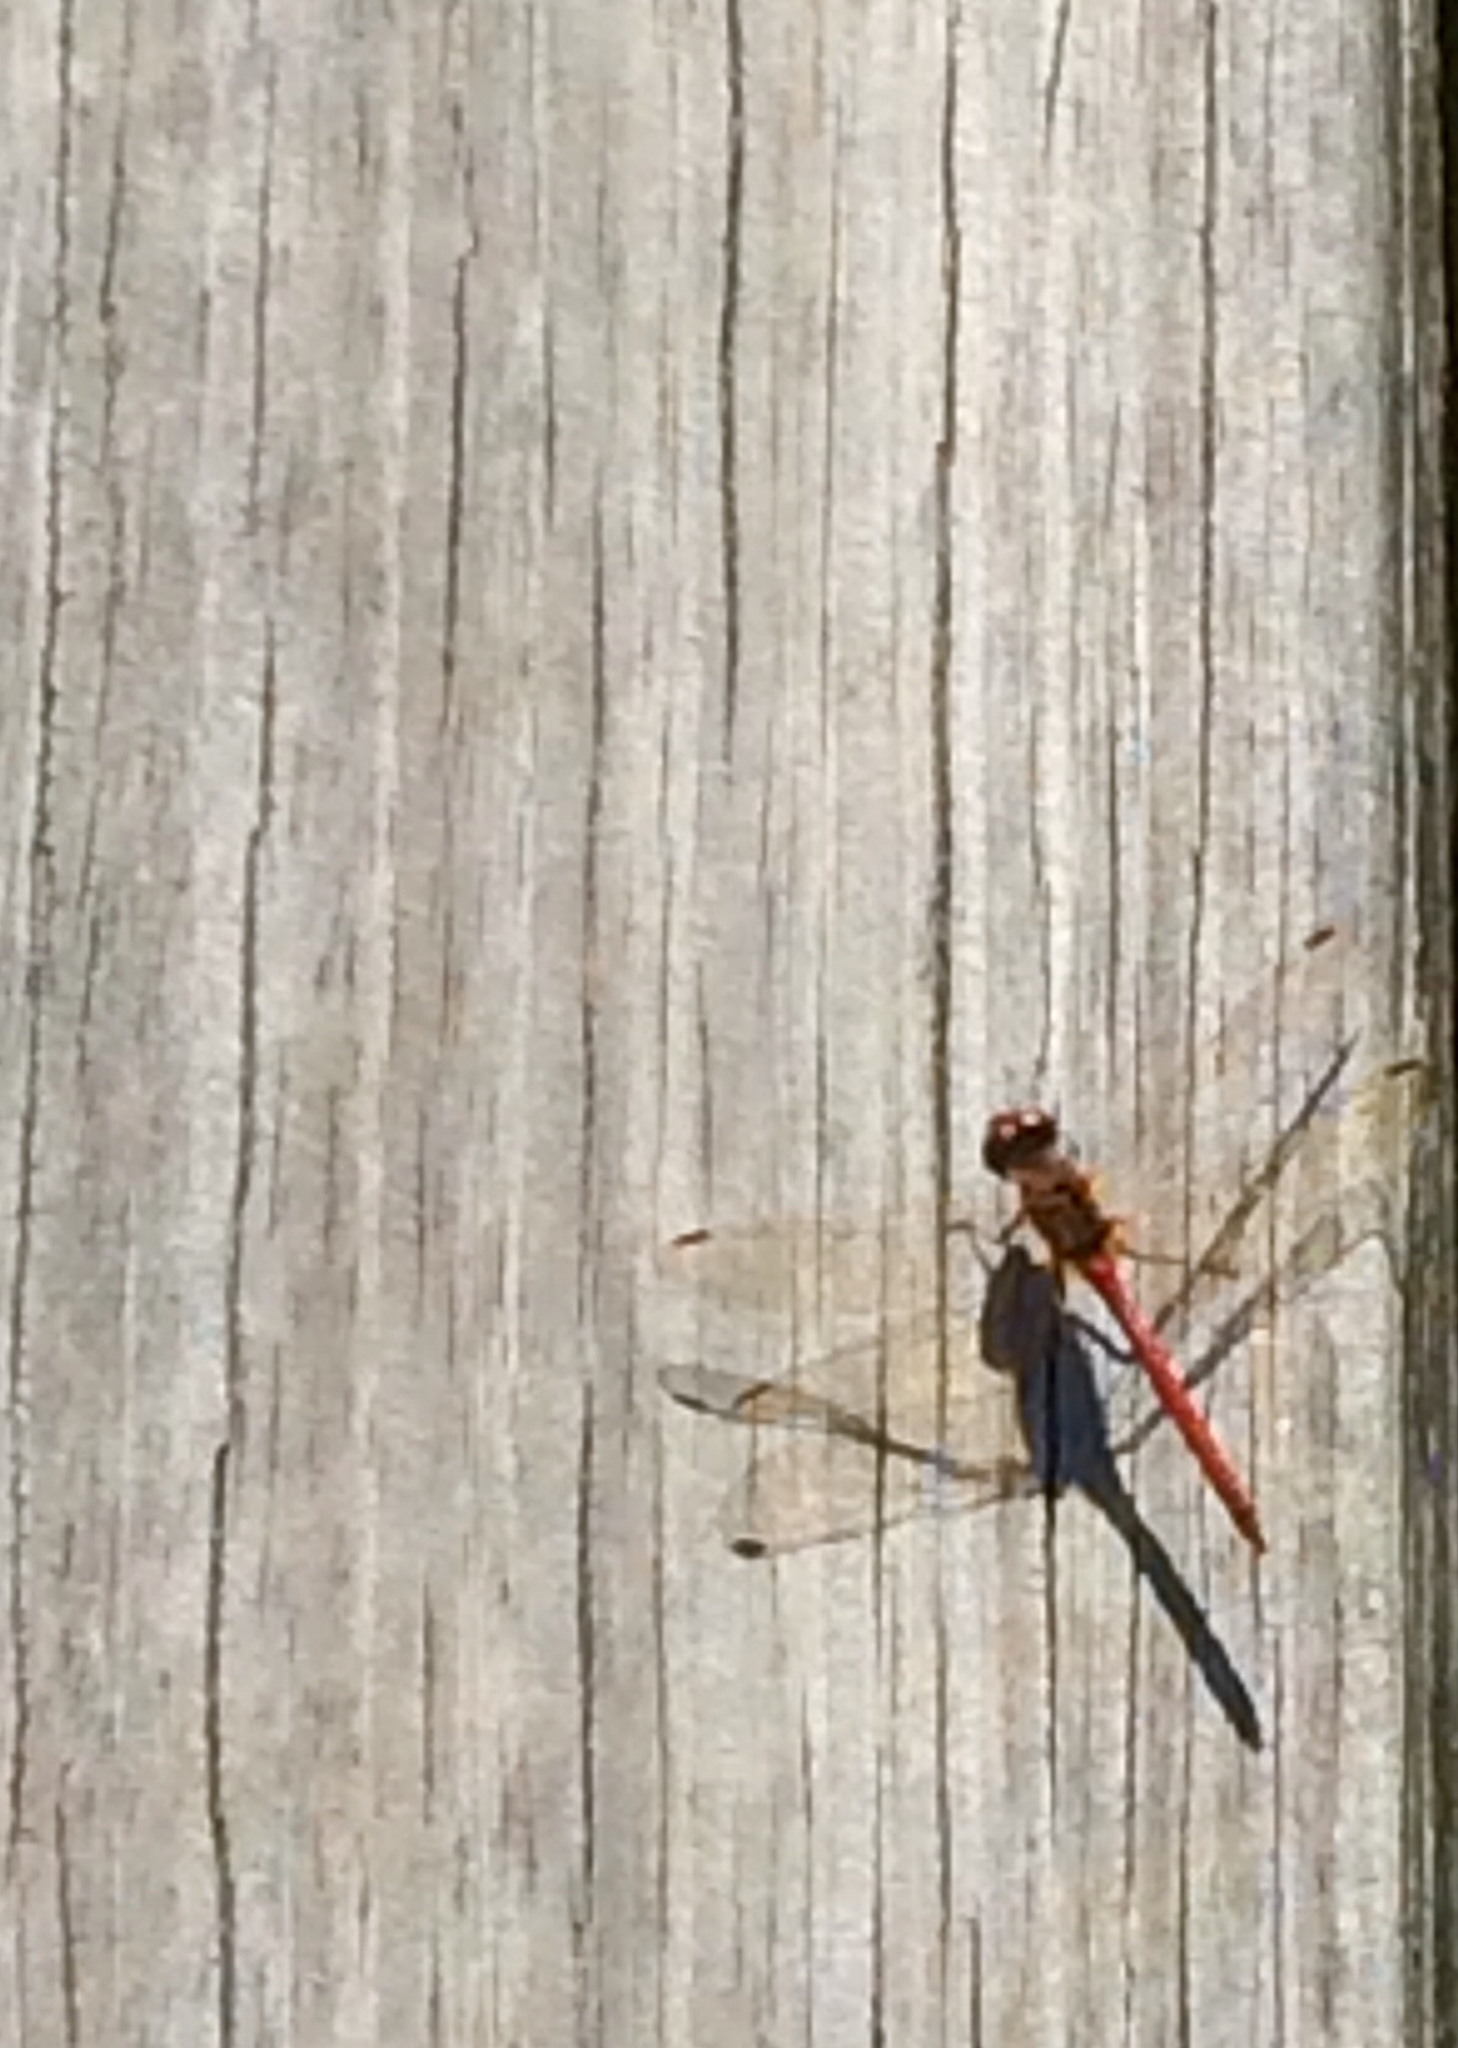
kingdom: Animalia
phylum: Arthropoda
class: Insecta
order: Odonata
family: Libellulidae
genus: Sympetrum
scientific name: Sympetrum vicinum
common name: Autumn meadowhawk
